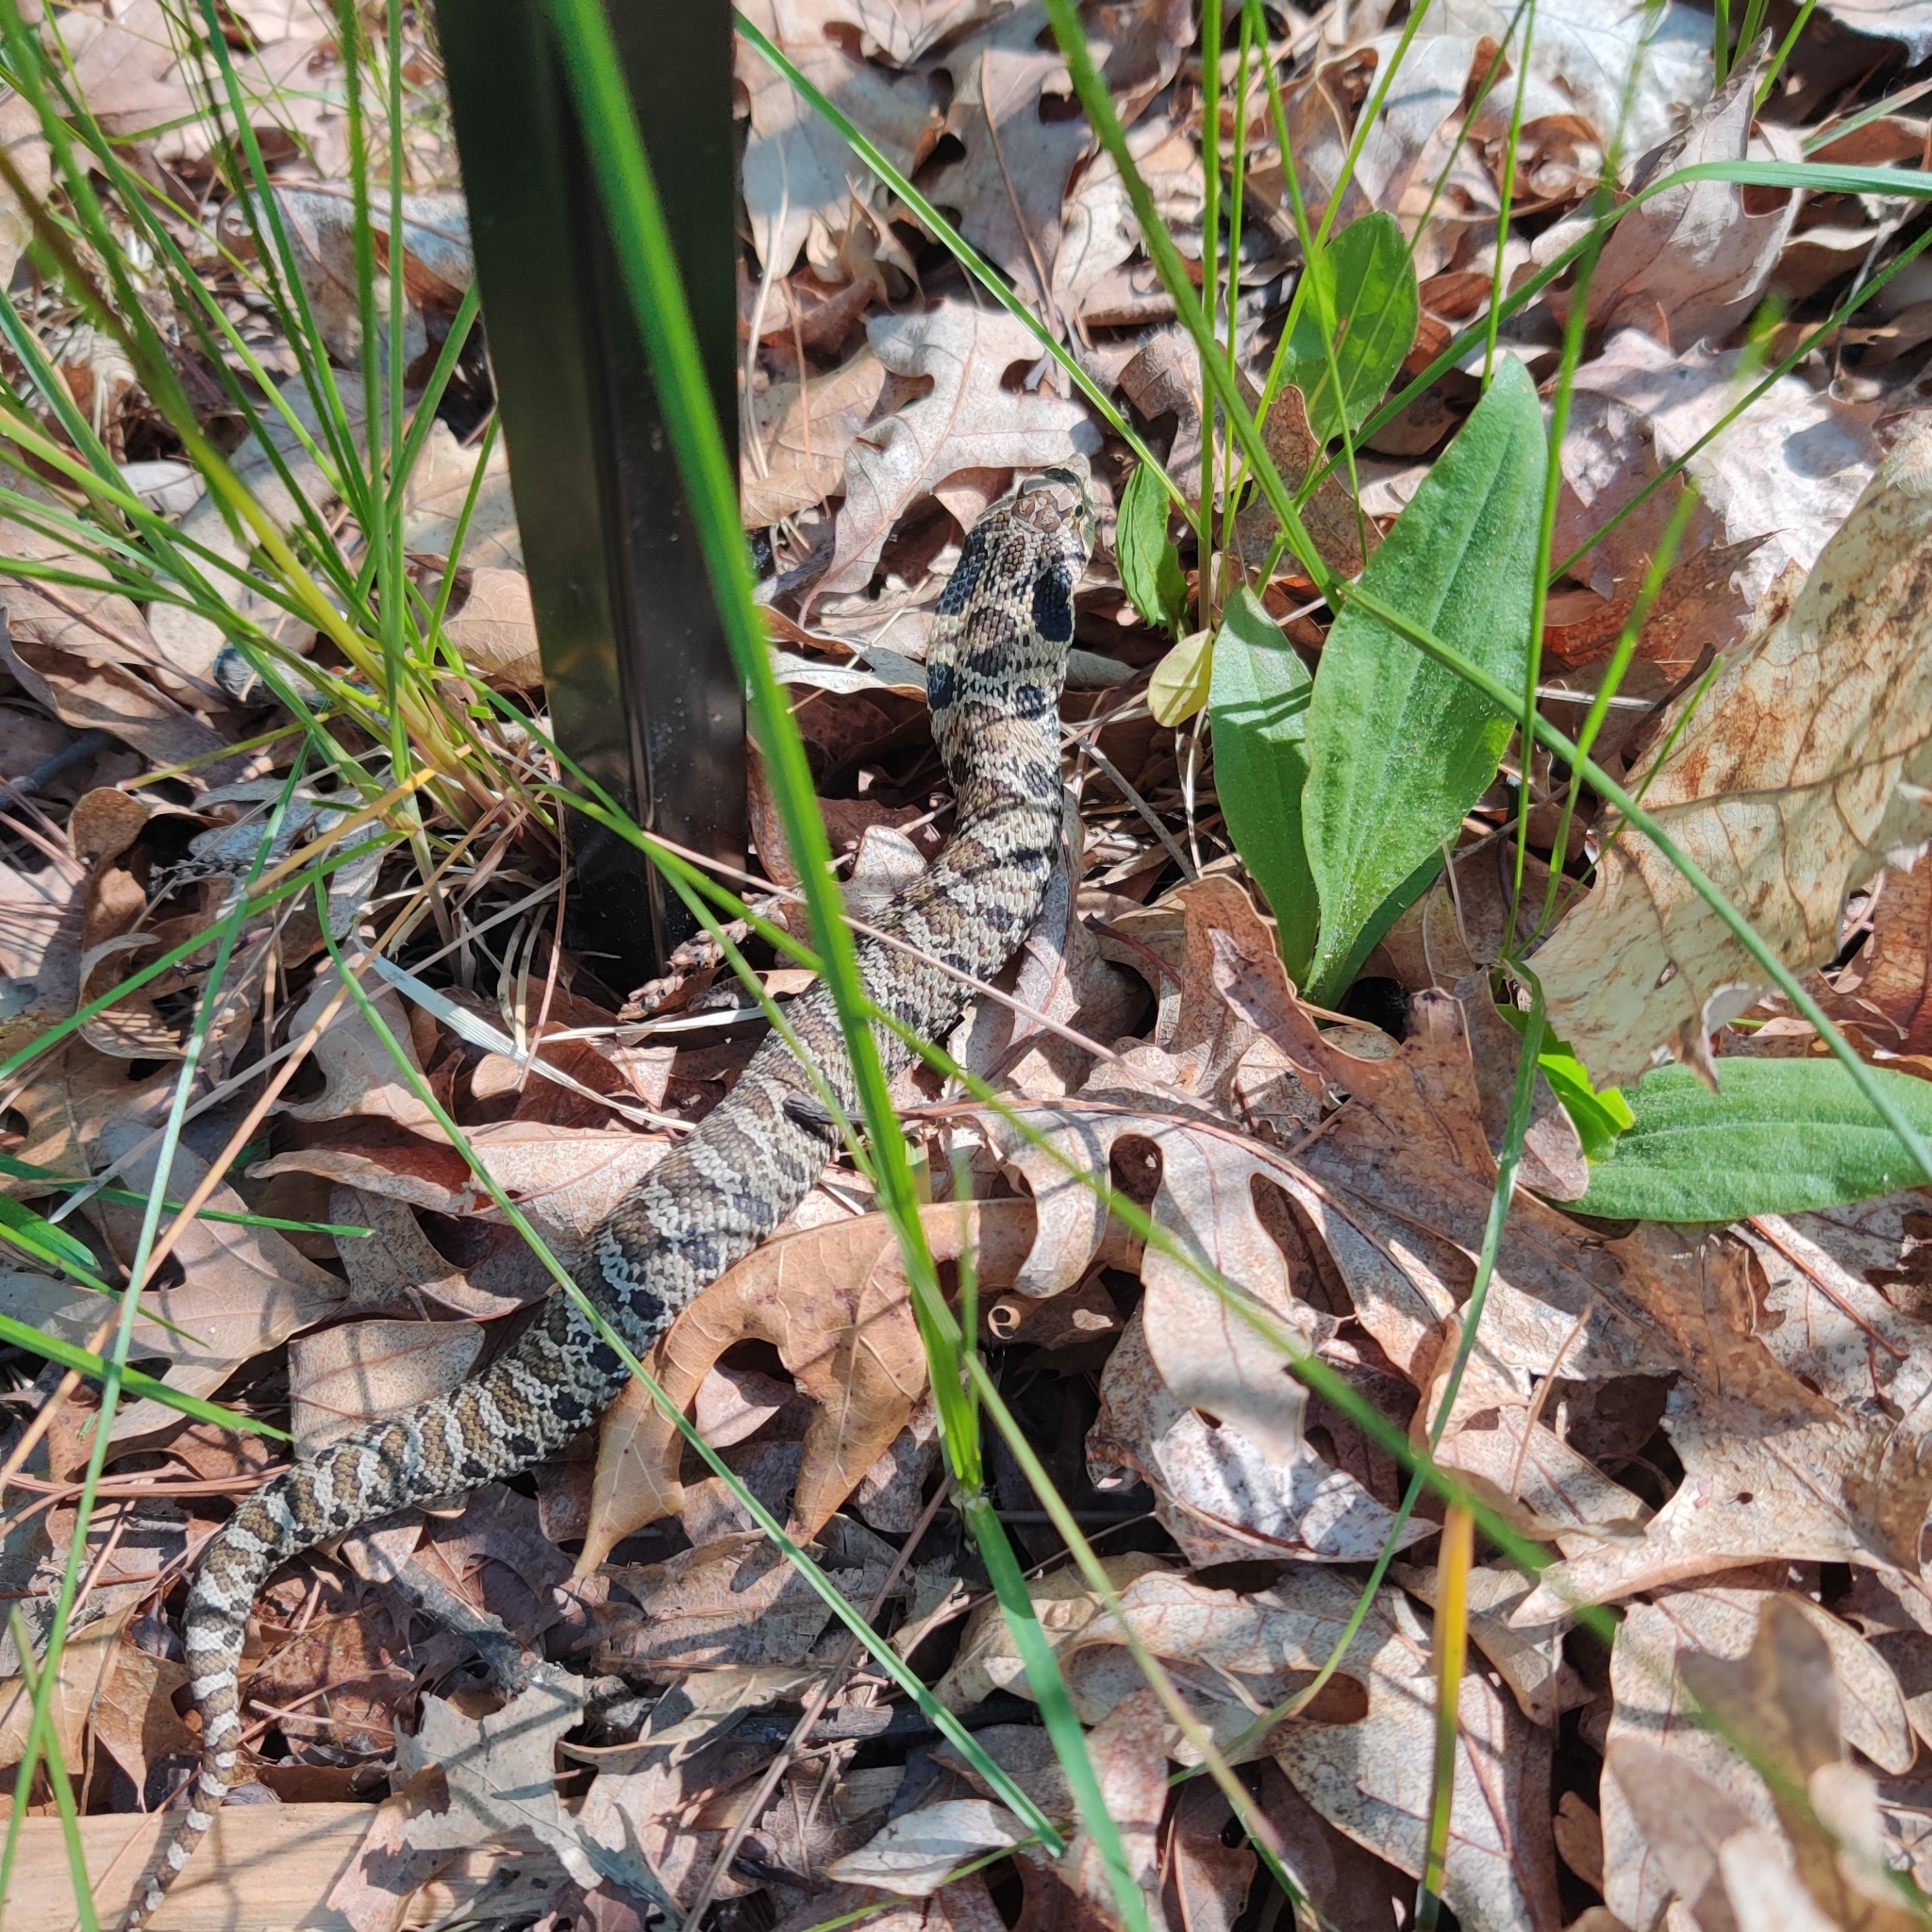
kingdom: Animalia
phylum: Chordata
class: Squamata
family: Colubridae
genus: Heterodon
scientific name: Heterodon platirhinos
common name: Eastern hognose snake
